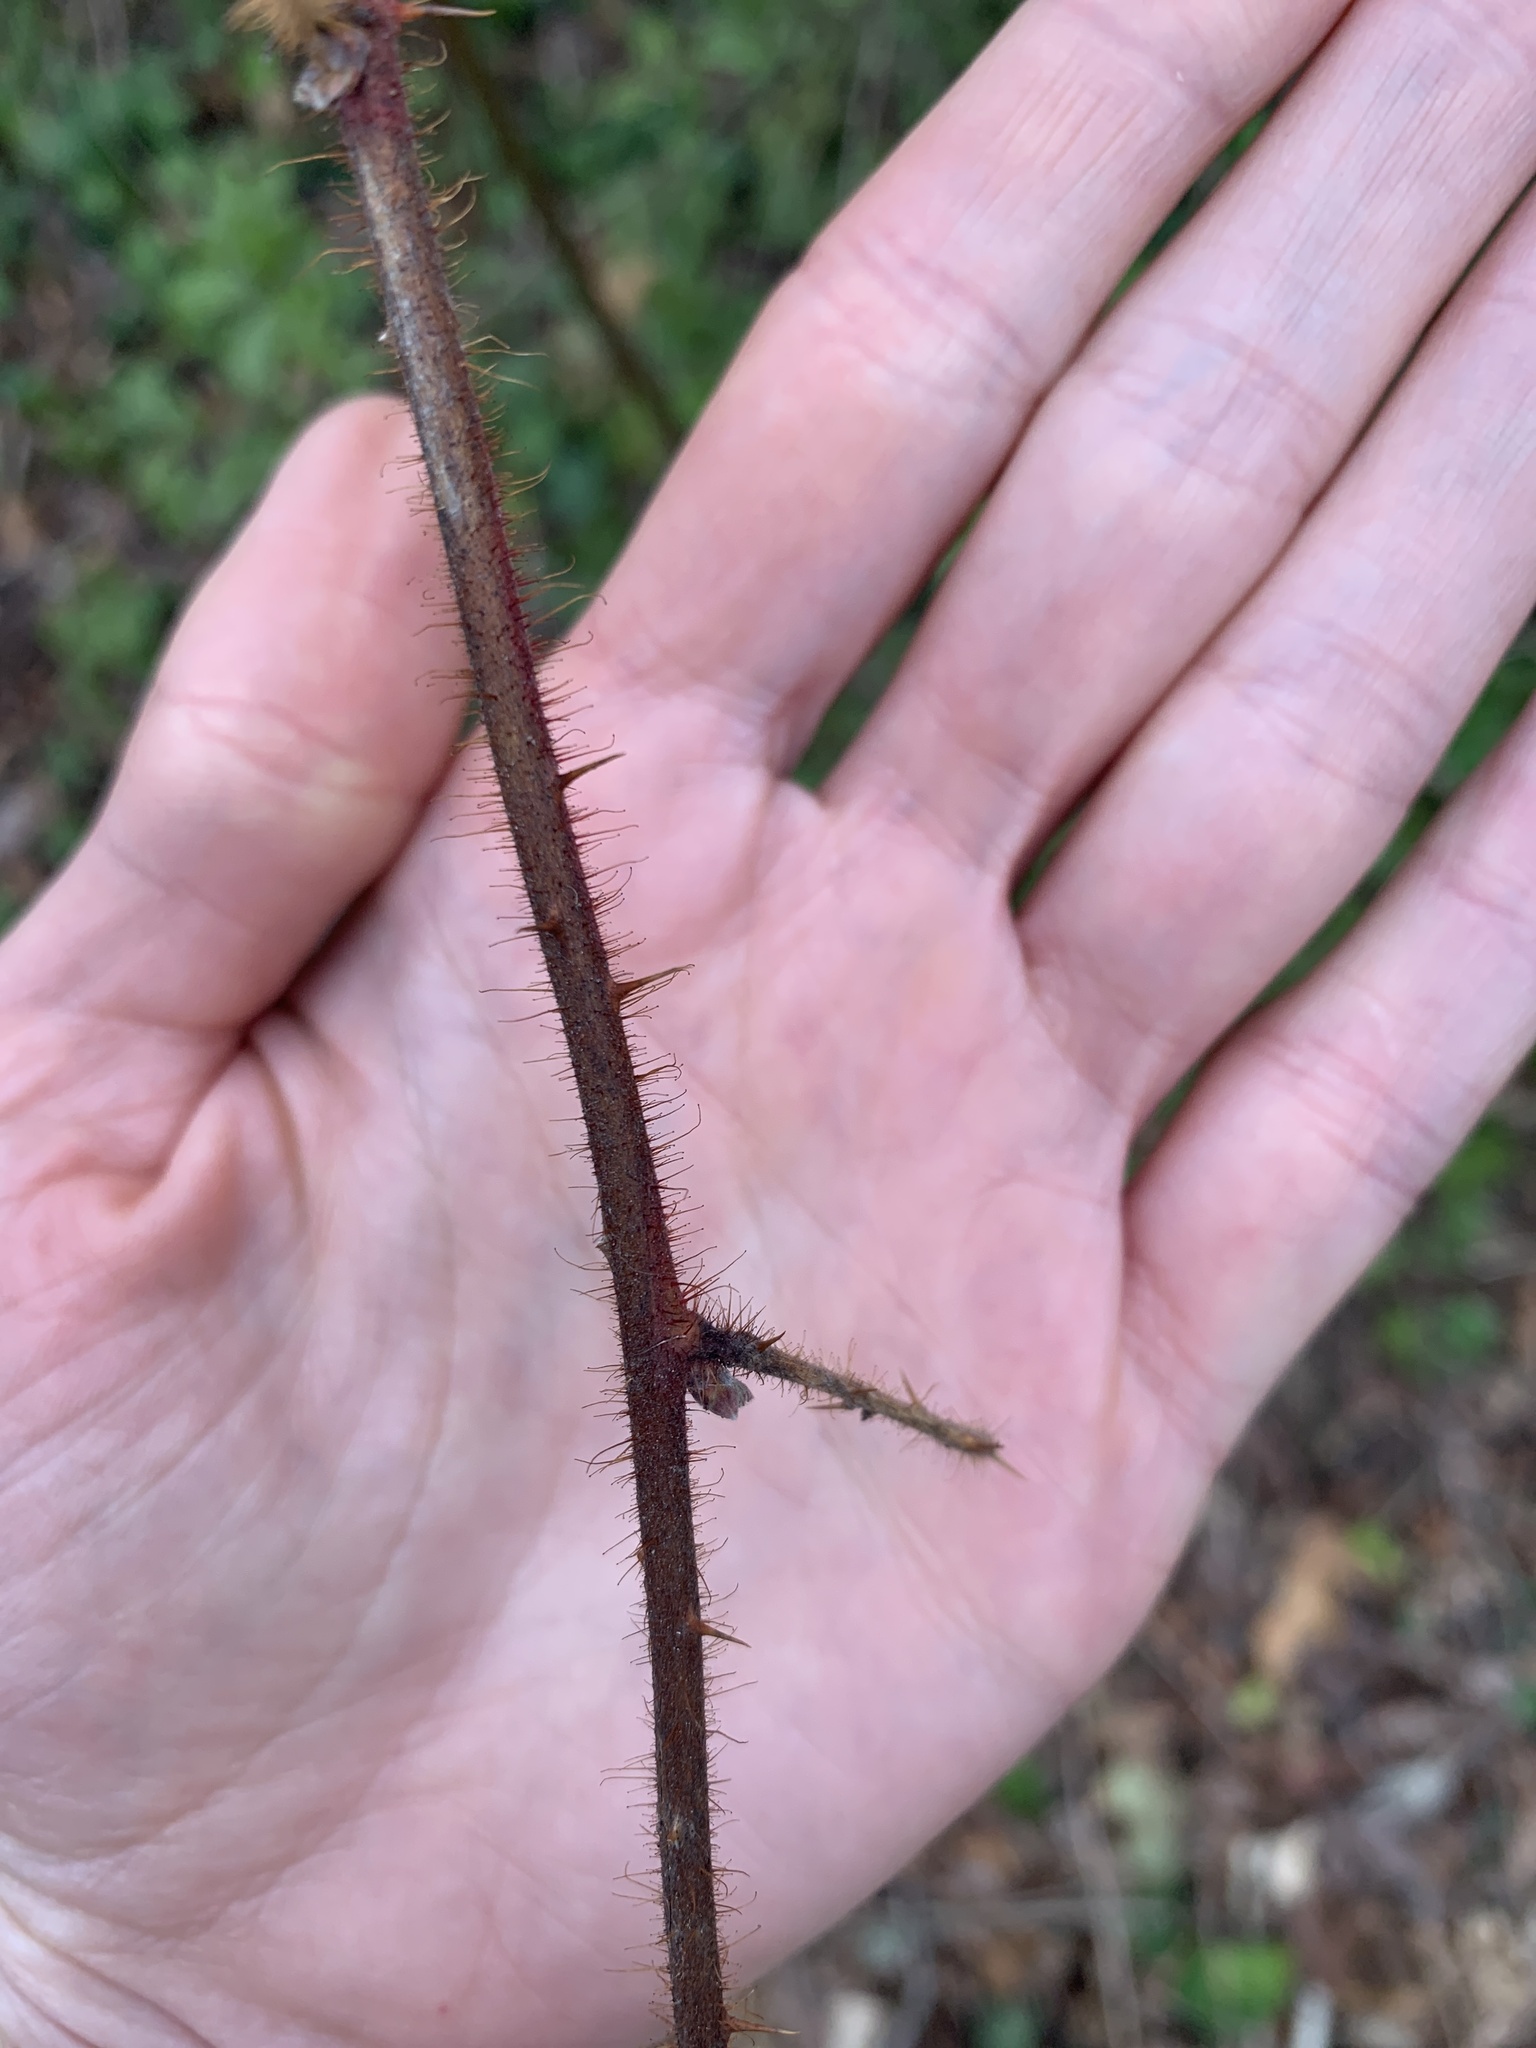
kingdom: Plantae
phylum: Tracheophyta
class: Magnoliopsida
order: Rosales
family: Rosaceae
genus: Rubus
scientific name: Rubus phoenicolasius
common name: Japanese wineberry
